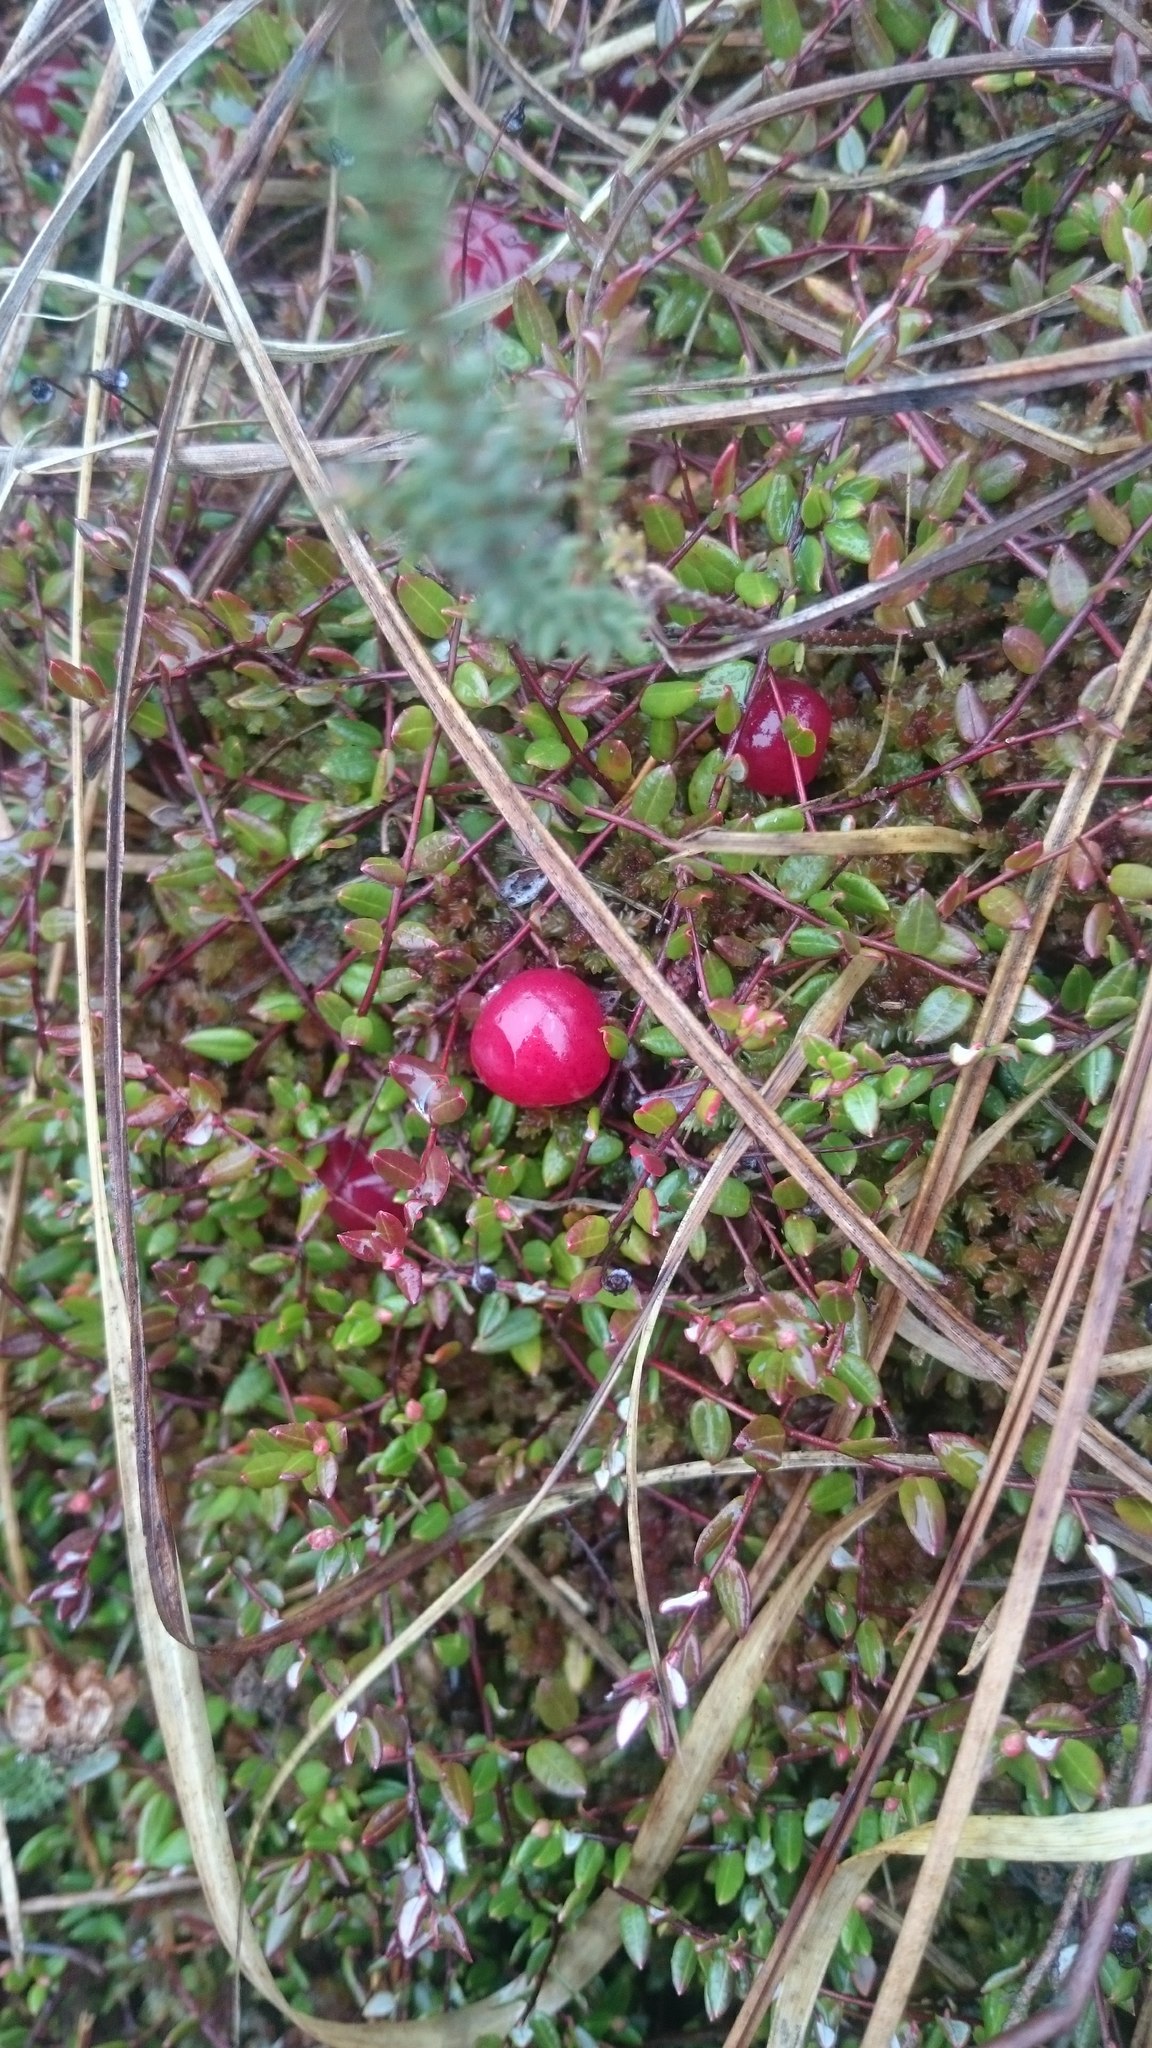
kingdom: Plantae
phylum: Tracheophyta
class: Magnoliopsida
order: Ericales
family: Ericaceae
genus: Vaccinium
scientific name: Vaccinium oxycoccos
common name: Cranberry
